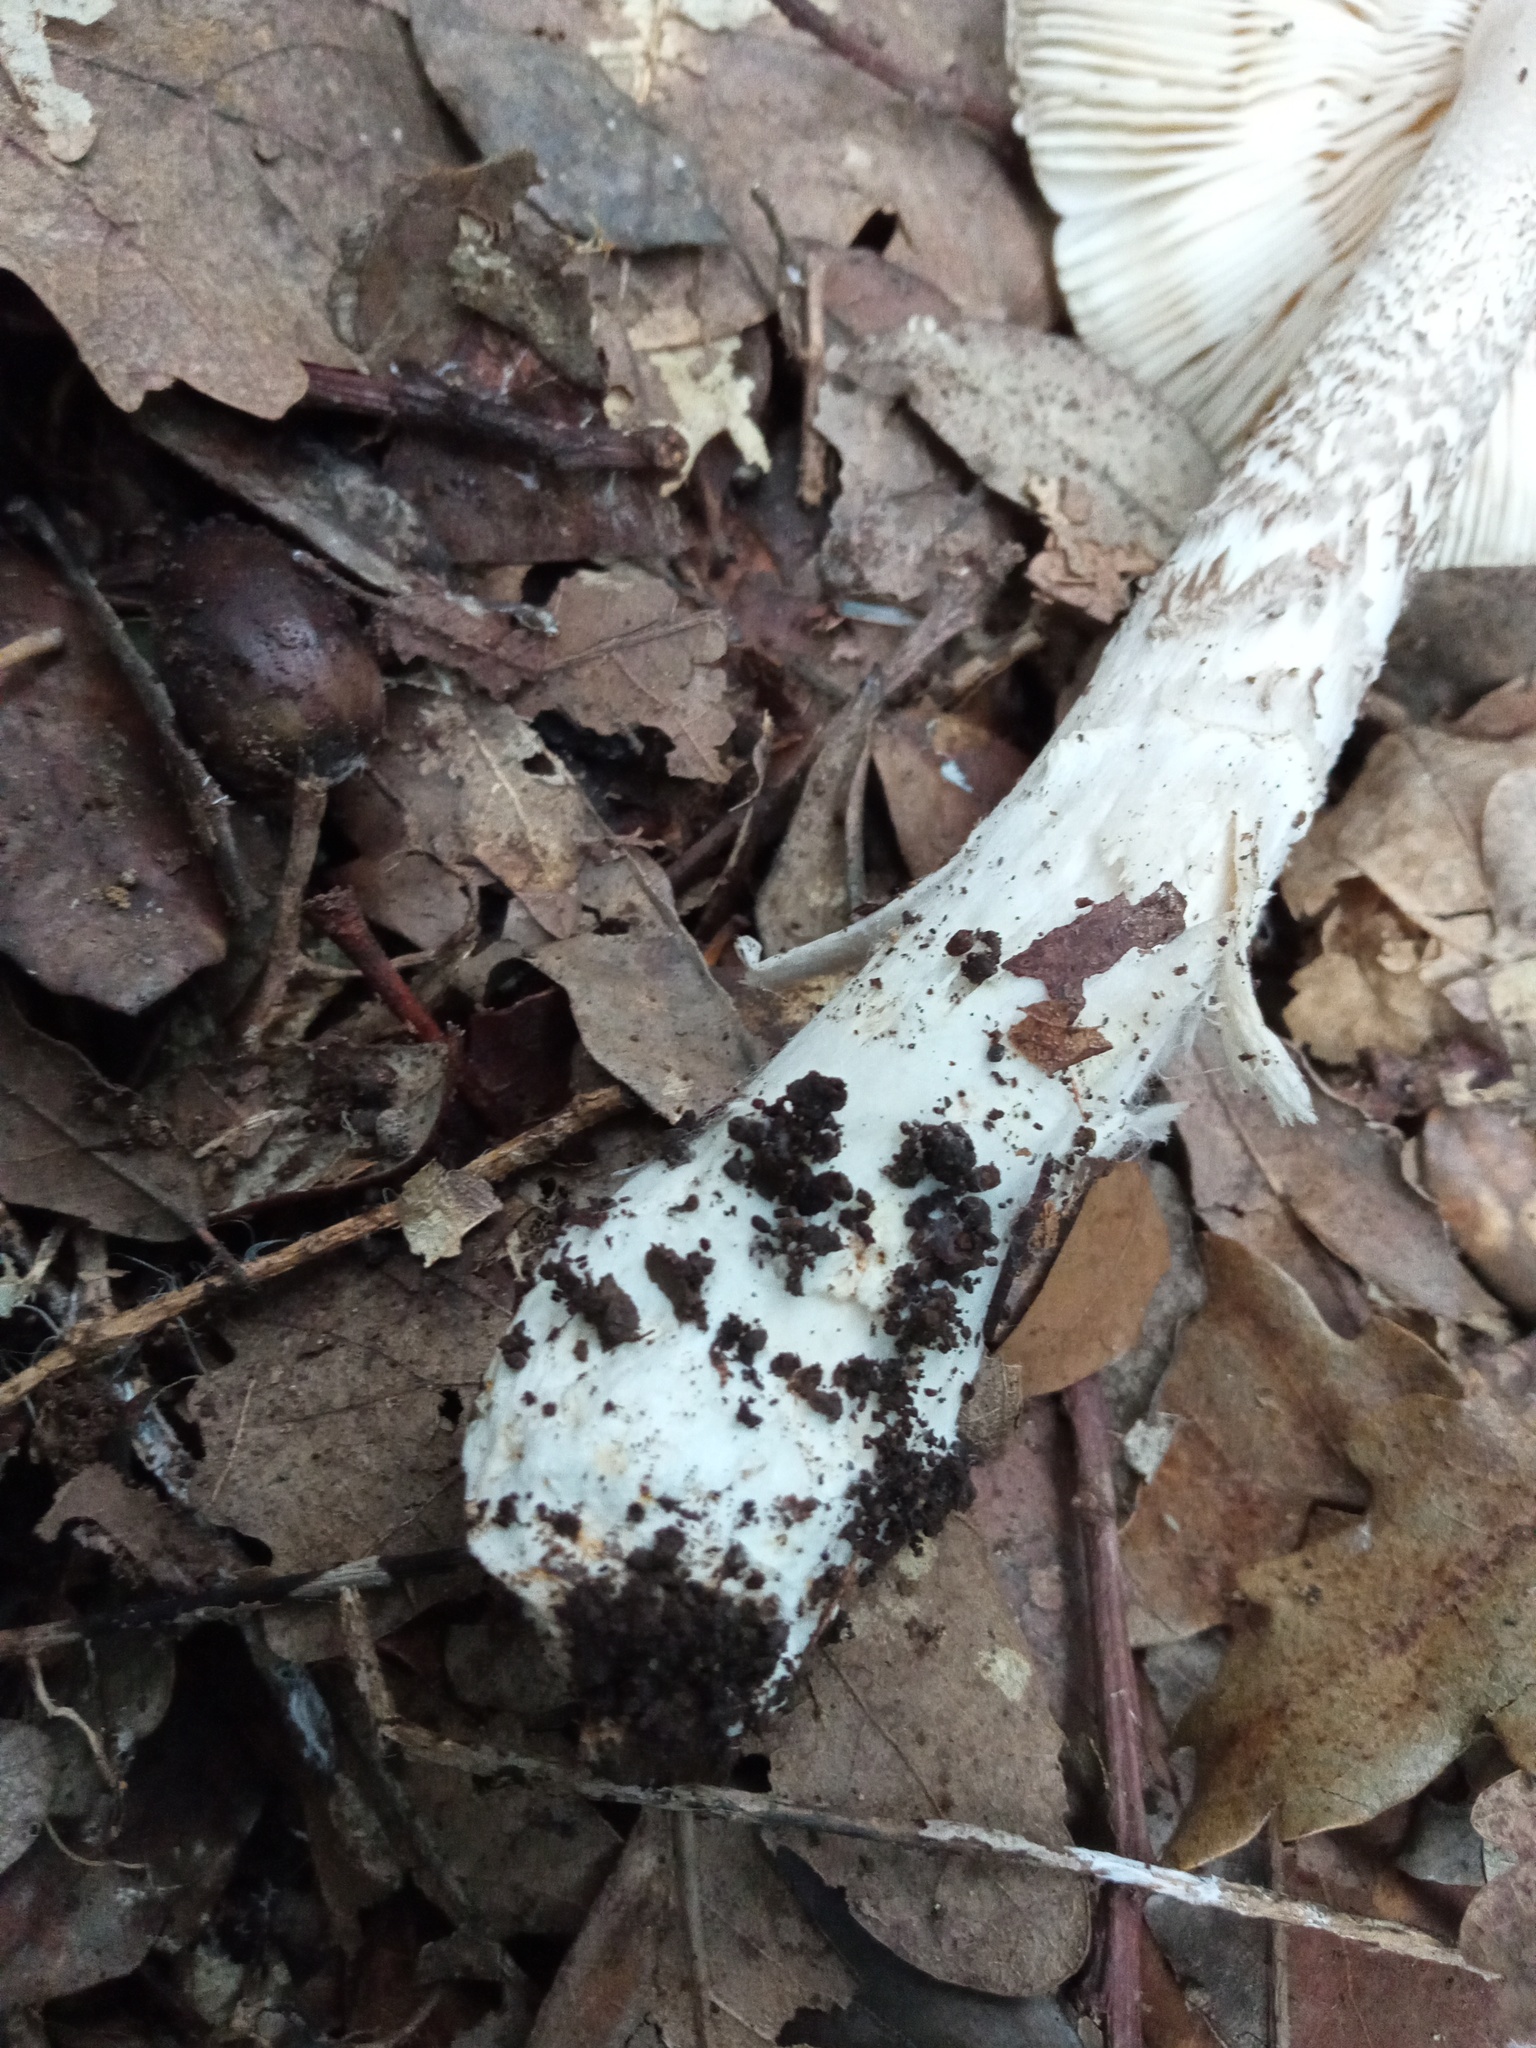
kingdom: Fungi
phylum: Basidiomycota
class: Agaricomycetes
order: Agaricales
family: Amanitaceae
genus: Amanita
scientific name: Amanita lividopallescens
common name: Pale grisette
